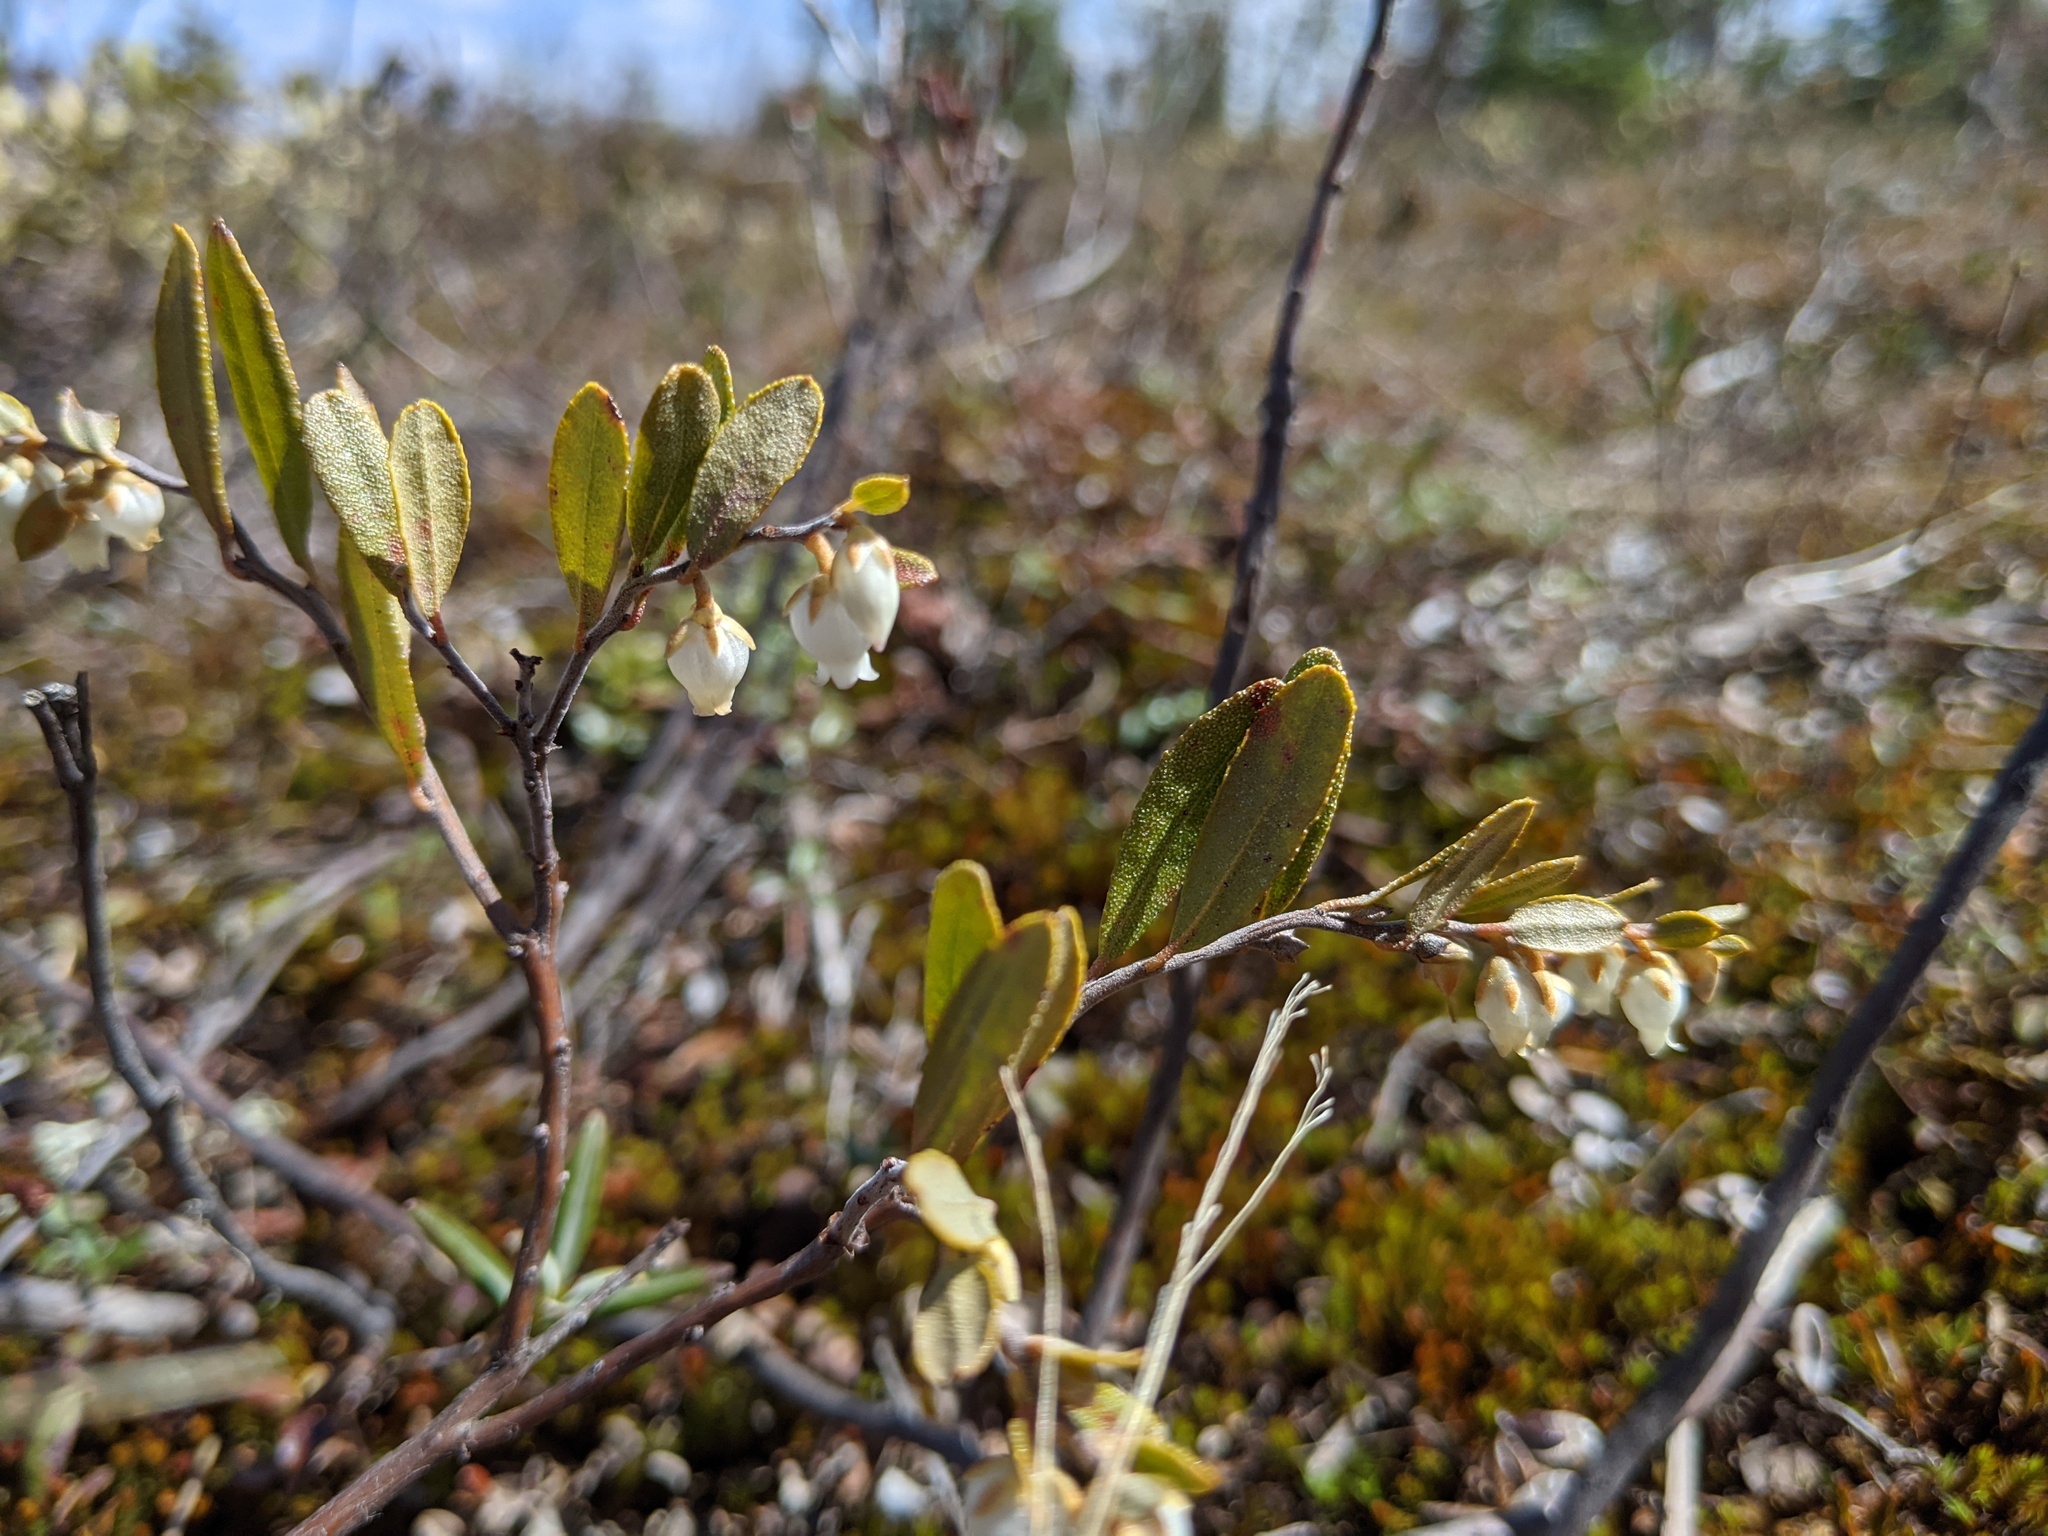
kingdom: Plantae
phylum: Tracheophyta
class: Magnoliopsida
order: Ericales
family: Ericaceae
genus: Chamaedaphne
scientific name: Chamaedaphne calyculata
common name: Leatherleaf
